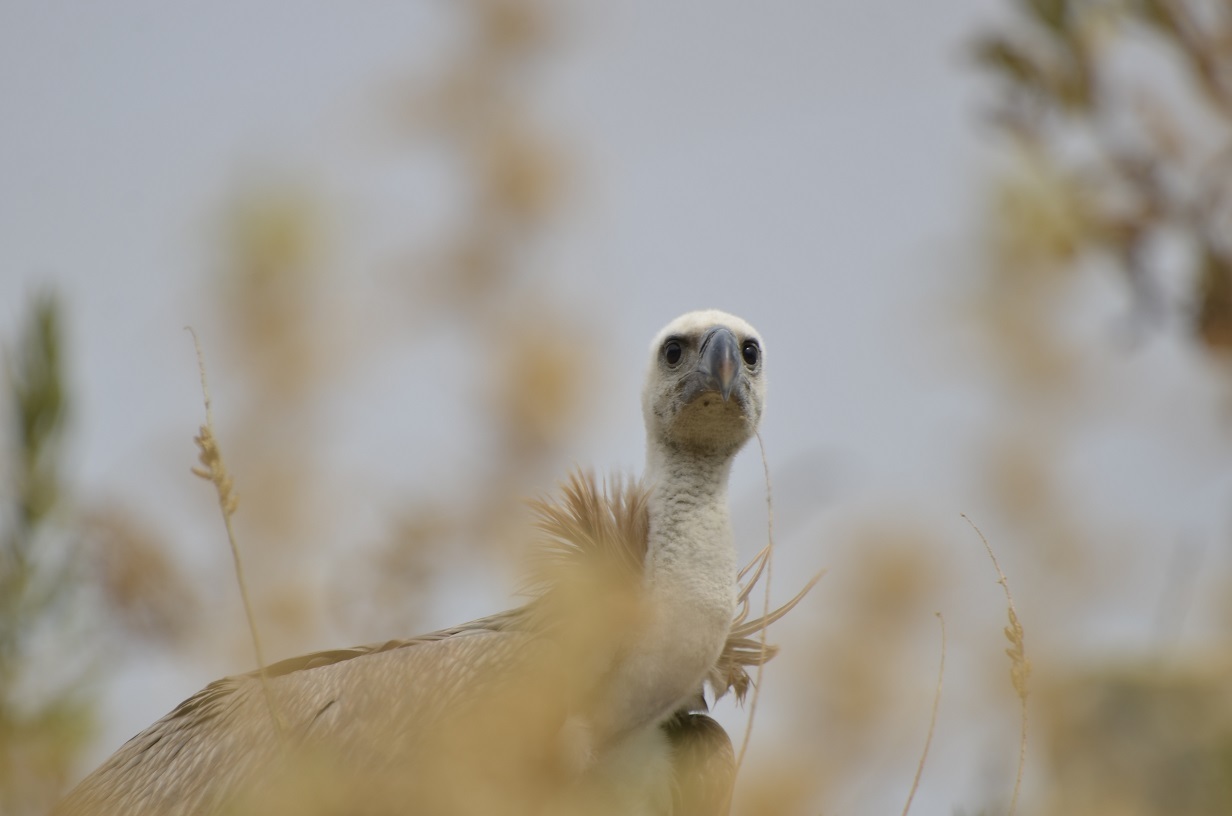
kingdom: Animalia
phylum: Chordata
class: Aves
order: Accipitriformes
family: Accipitridae
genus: Gyps
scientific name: Gyps fulvus
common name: Griffon vulture
